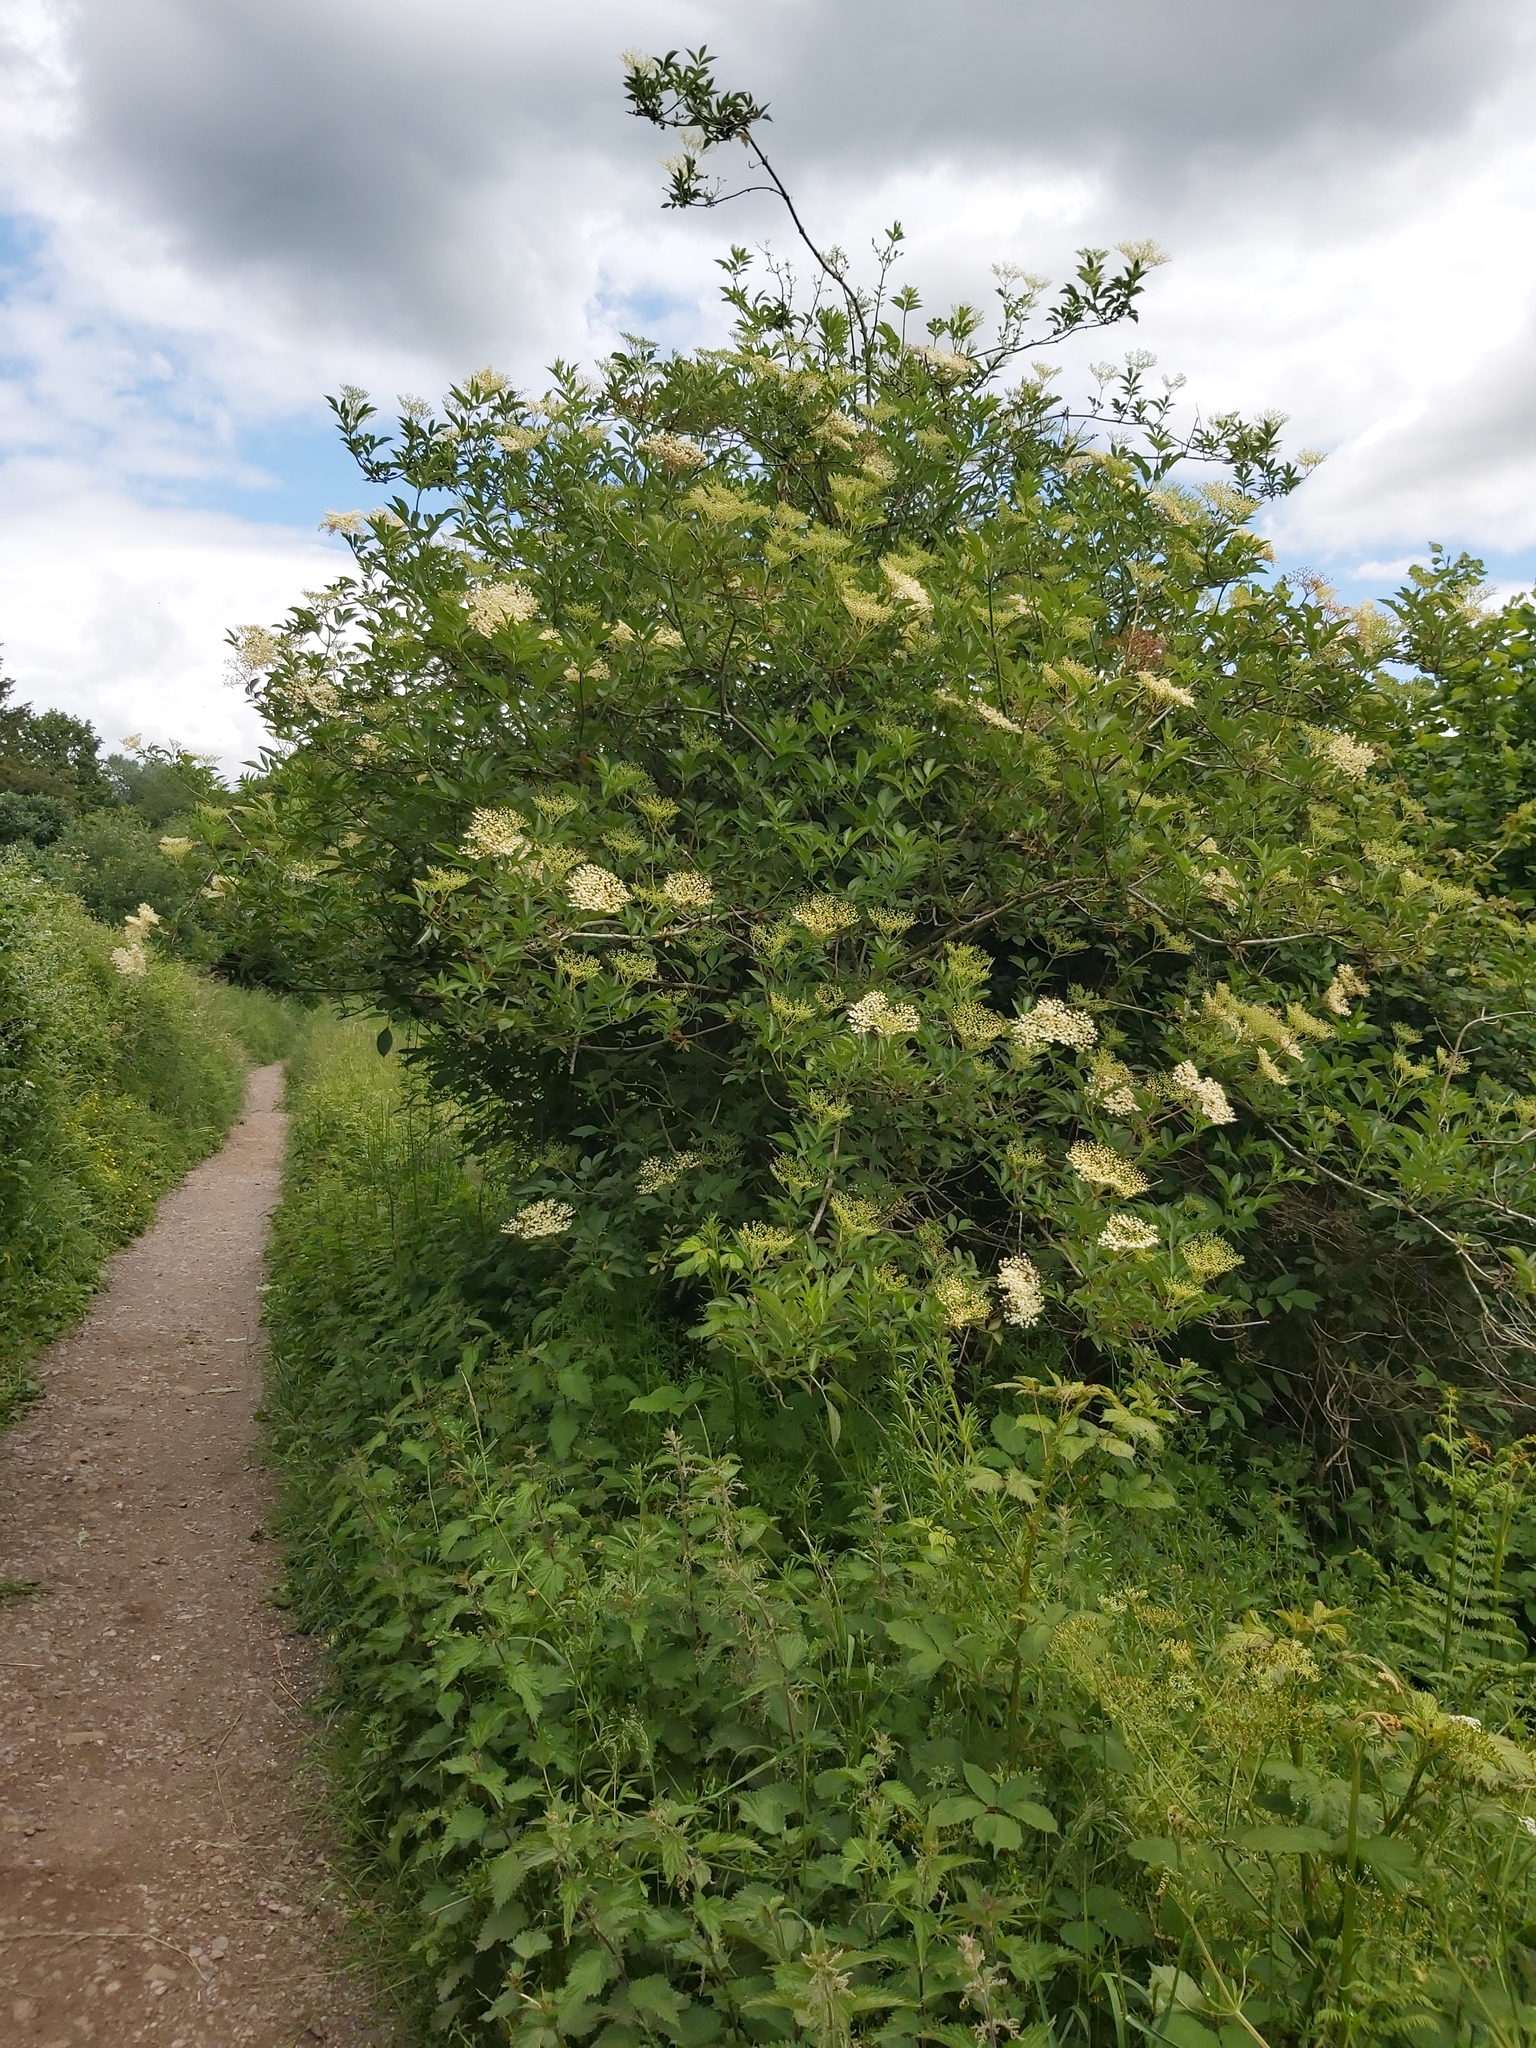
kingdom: Plantae
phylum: Tracheophyta
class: Magnoliopsida
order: Dipsacales
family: Viburnaceae
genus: Sambucus
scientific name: Sambucus nigra
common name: Elder
